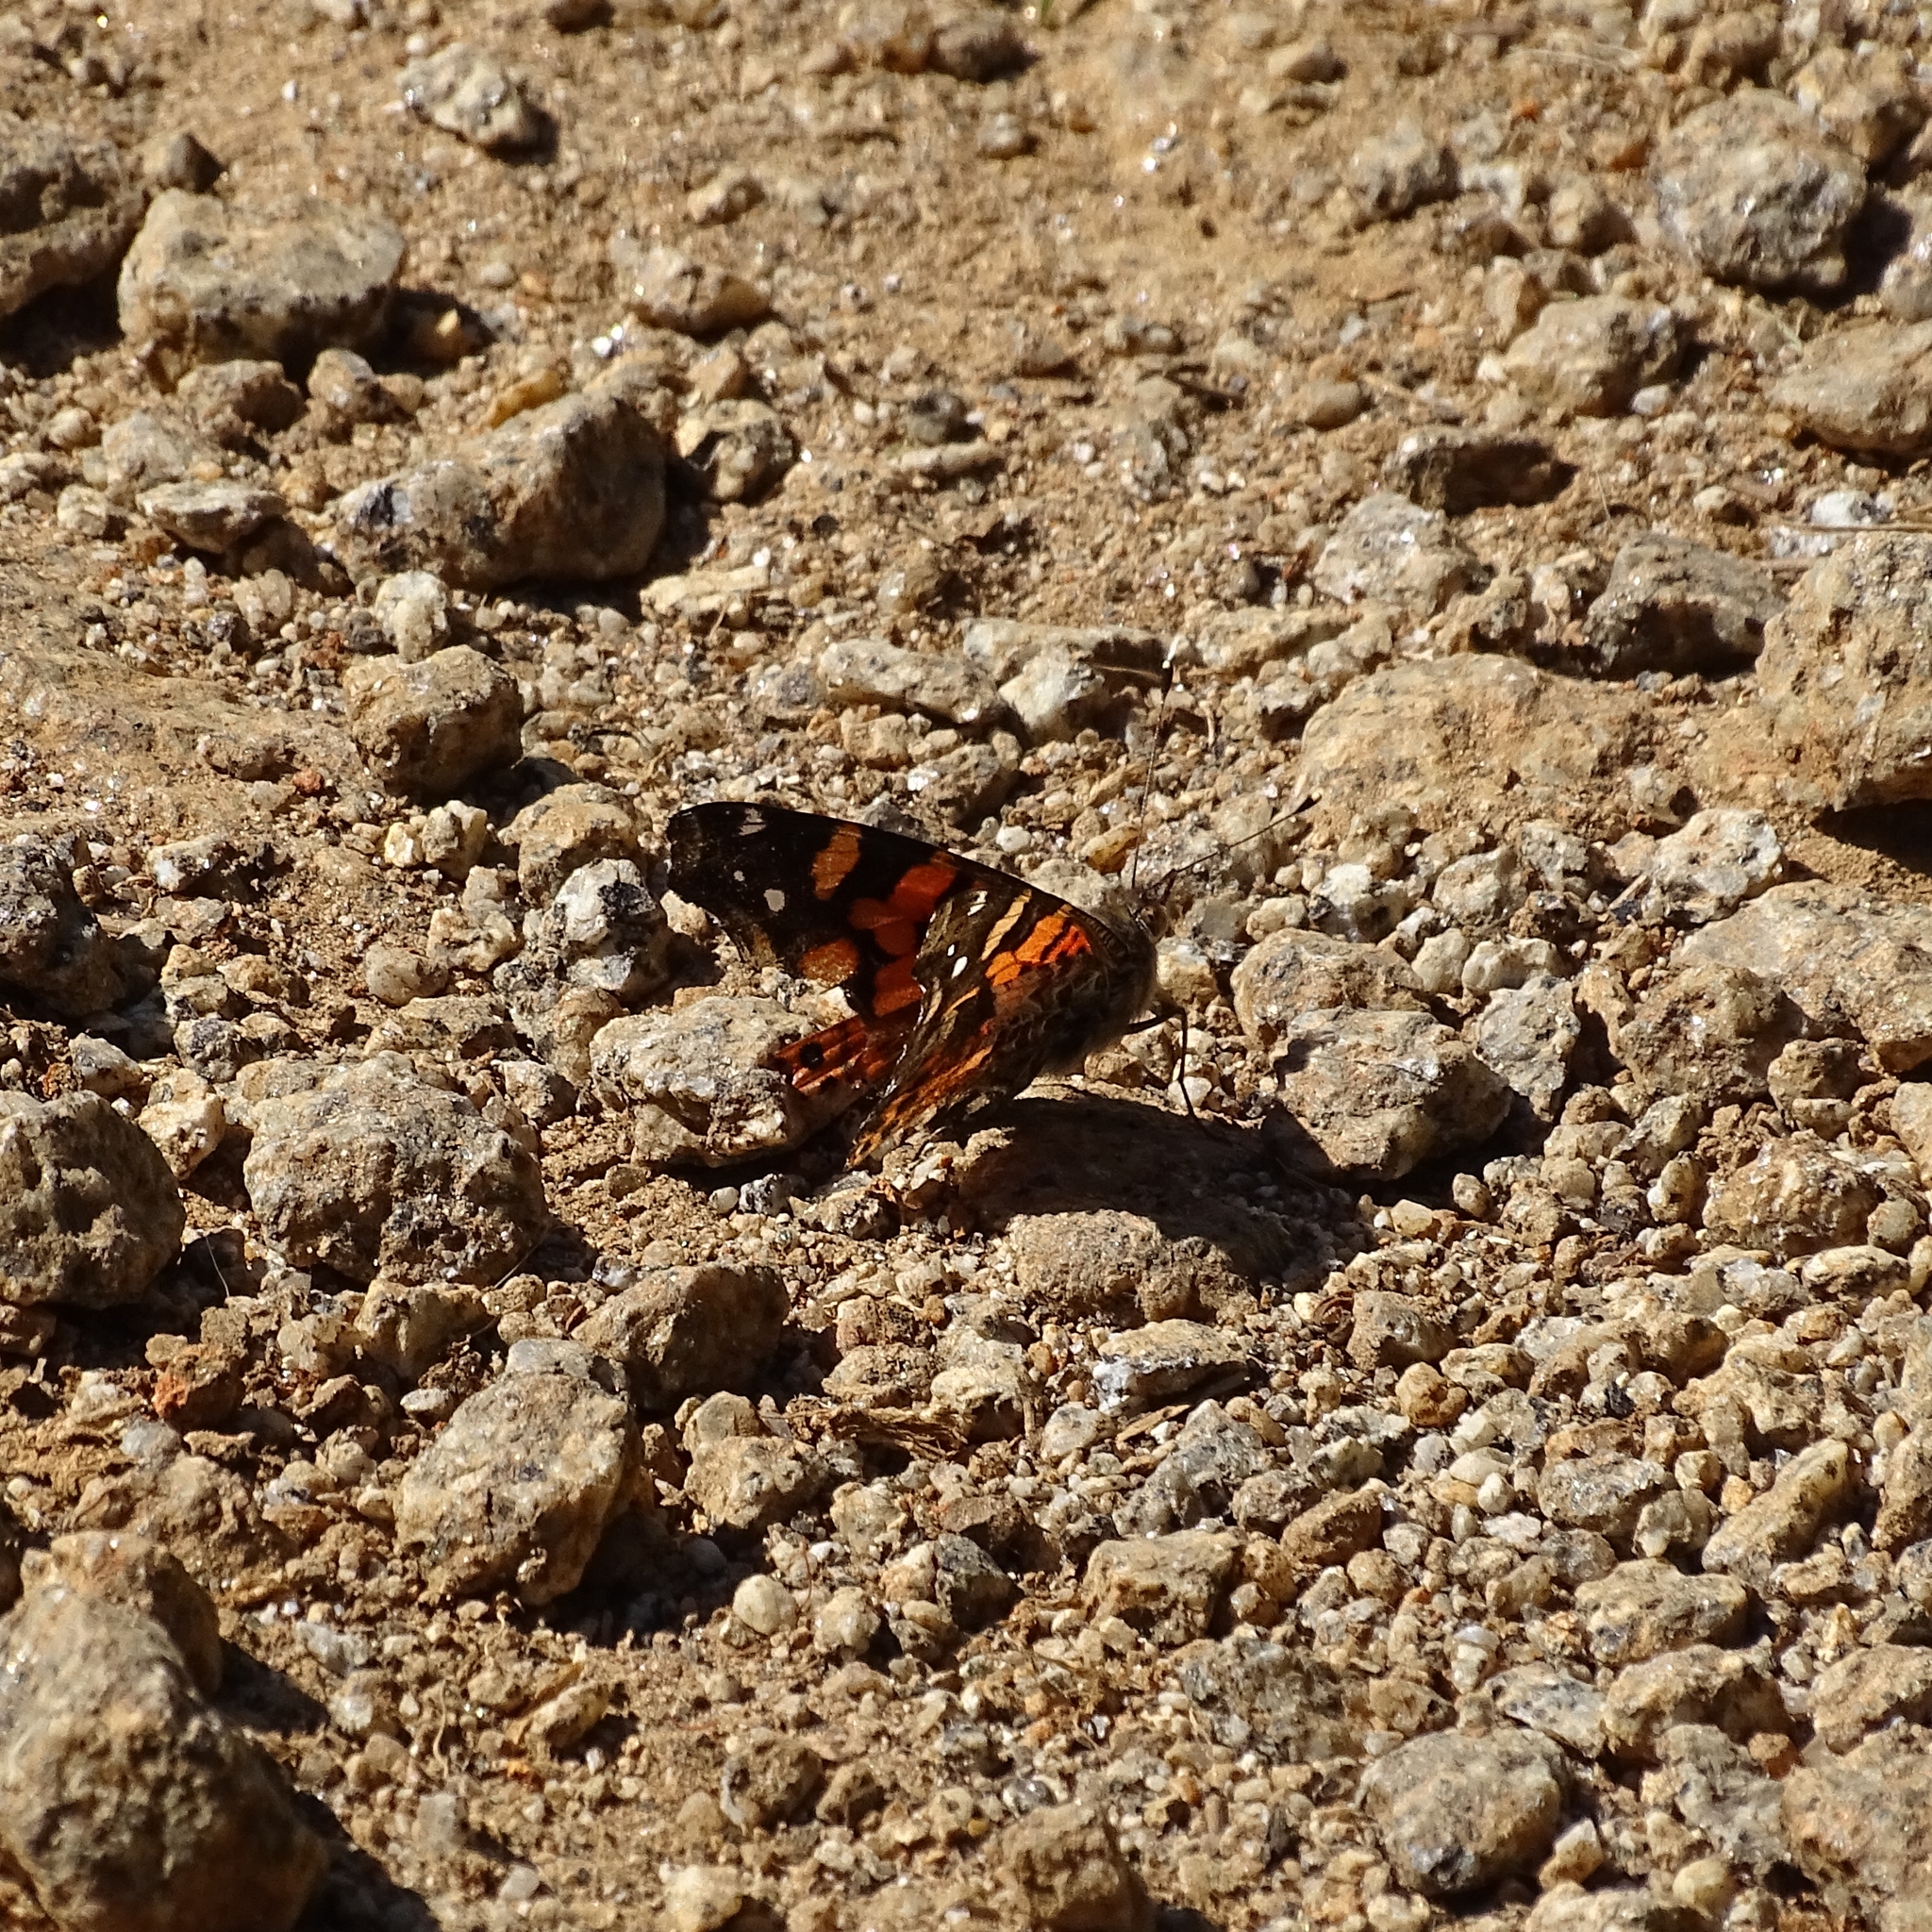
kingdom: Animalia
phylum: Arthropoda
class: Insecta
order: Lepidoptera
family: Nymphalidae
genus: Vanessa
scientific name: Vanessa carye
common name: Subtropical lady
